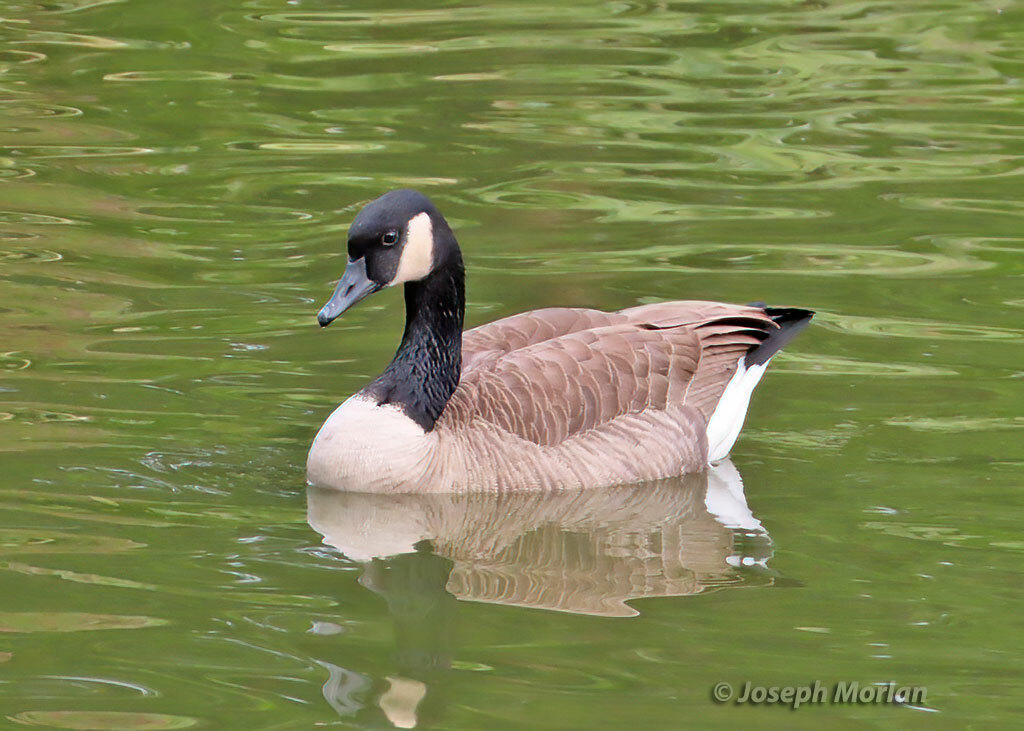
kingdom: Animalia
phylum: Chordata
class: Aves
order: Anseriformes
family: Anatidae
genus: Branta
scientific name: Branta canadensis
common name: Canada goose
